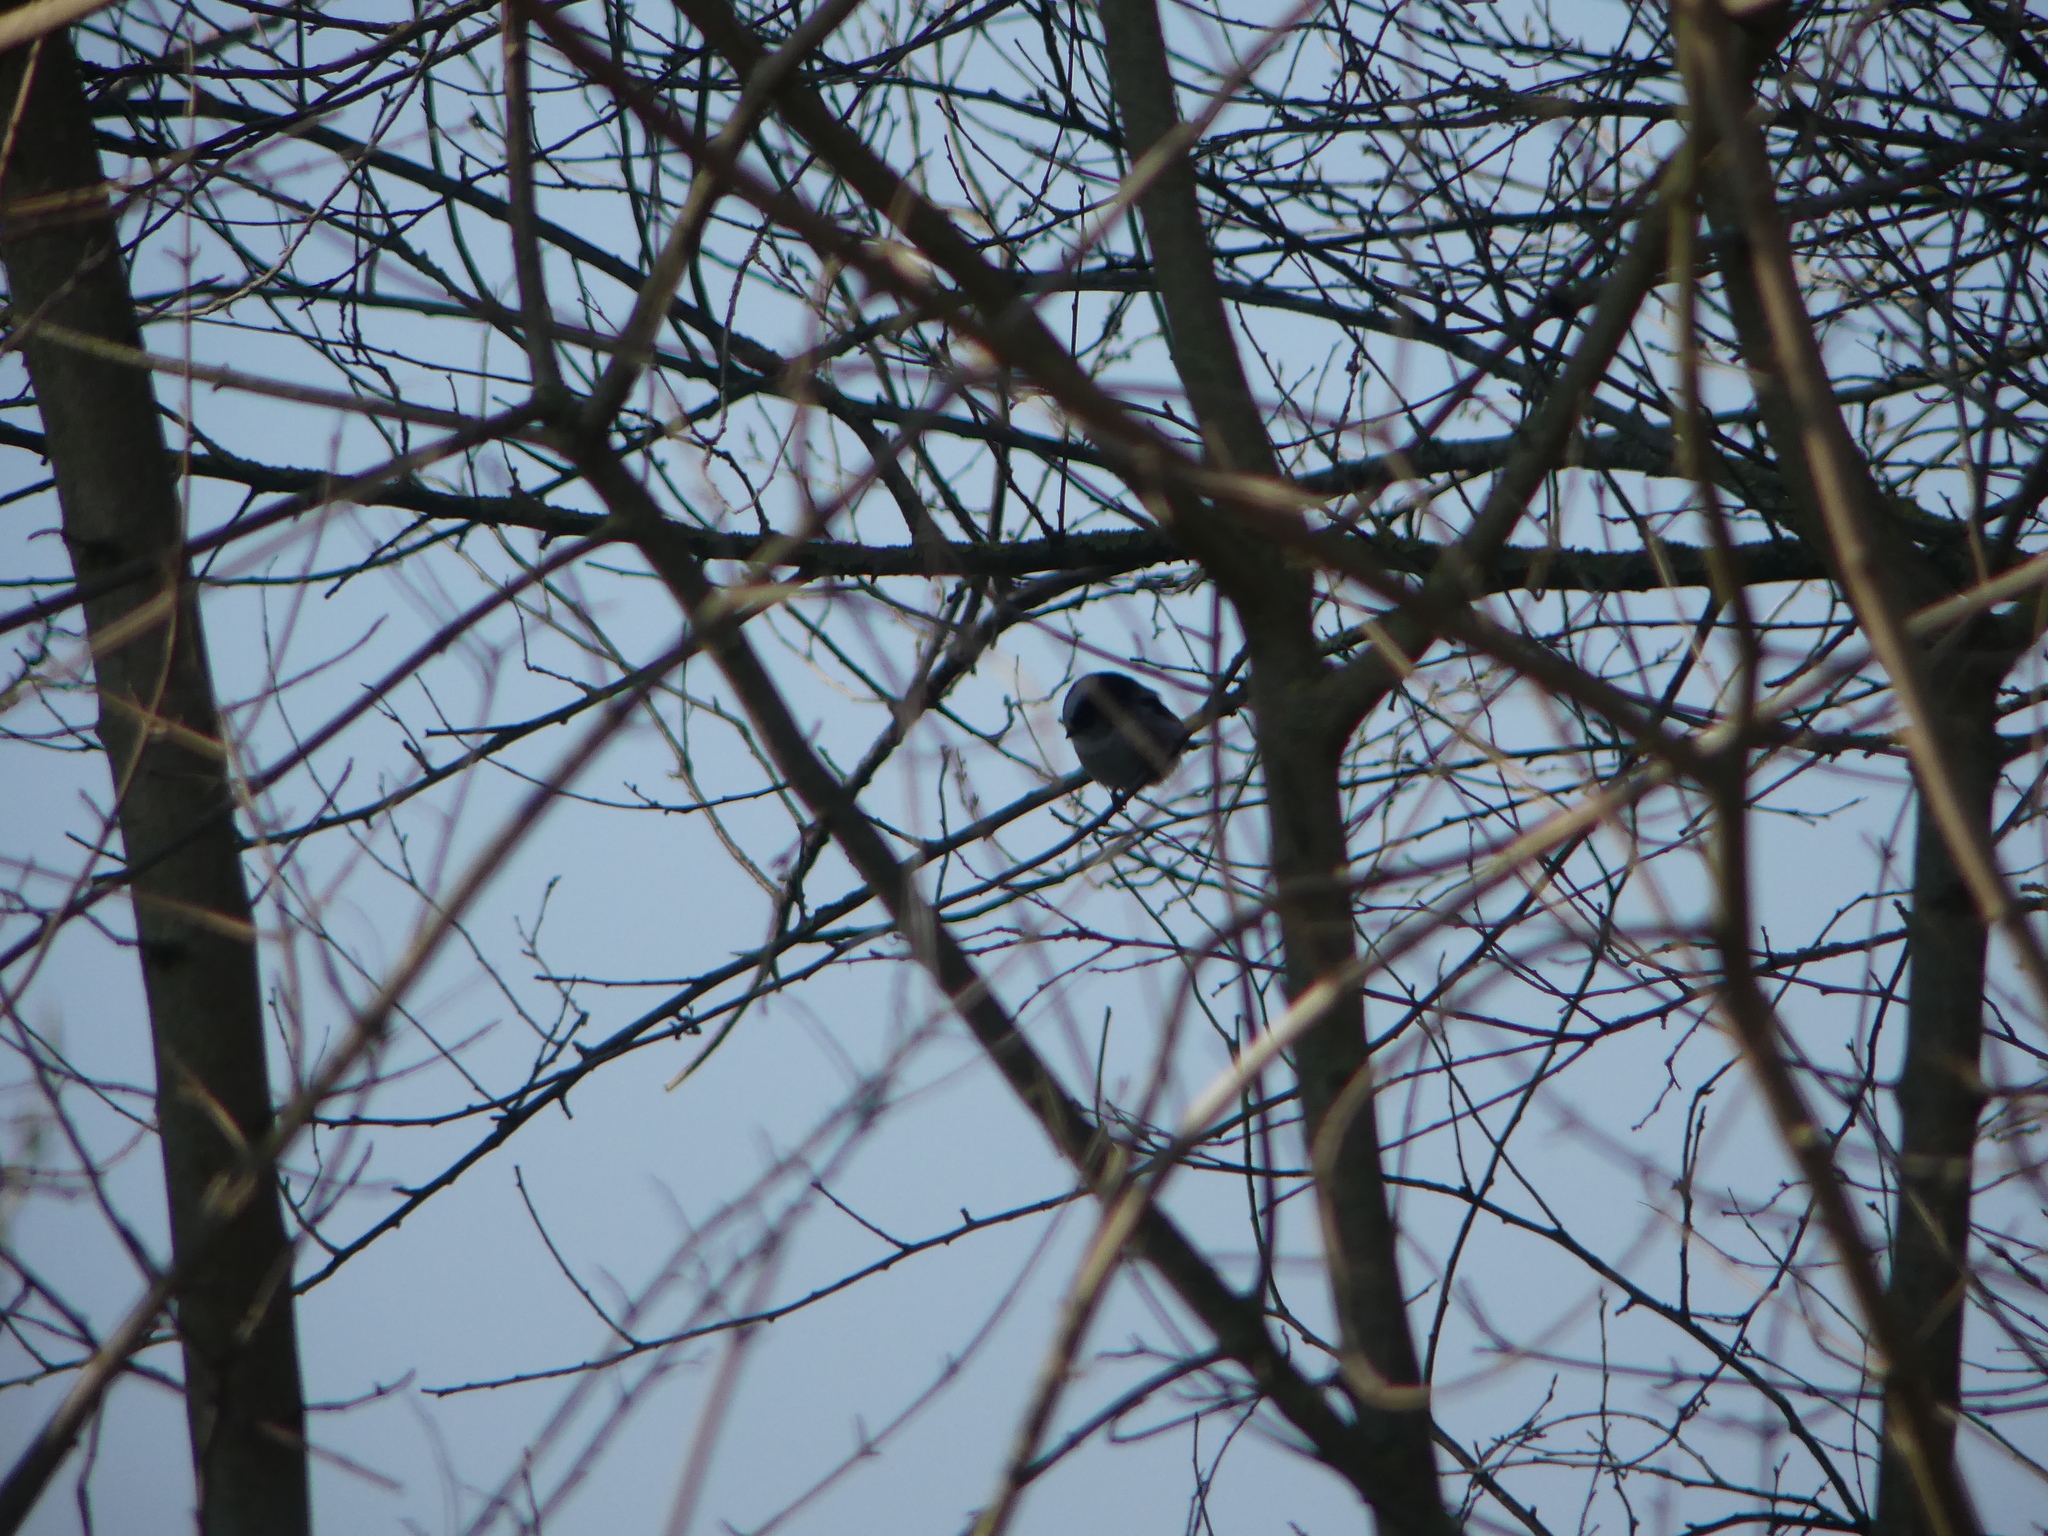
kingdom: Animalia
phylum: Chordata
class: Aves
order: Passeriformes
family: Aegithalidae
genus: Aegithalos
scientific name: Aegithalos caudatus
